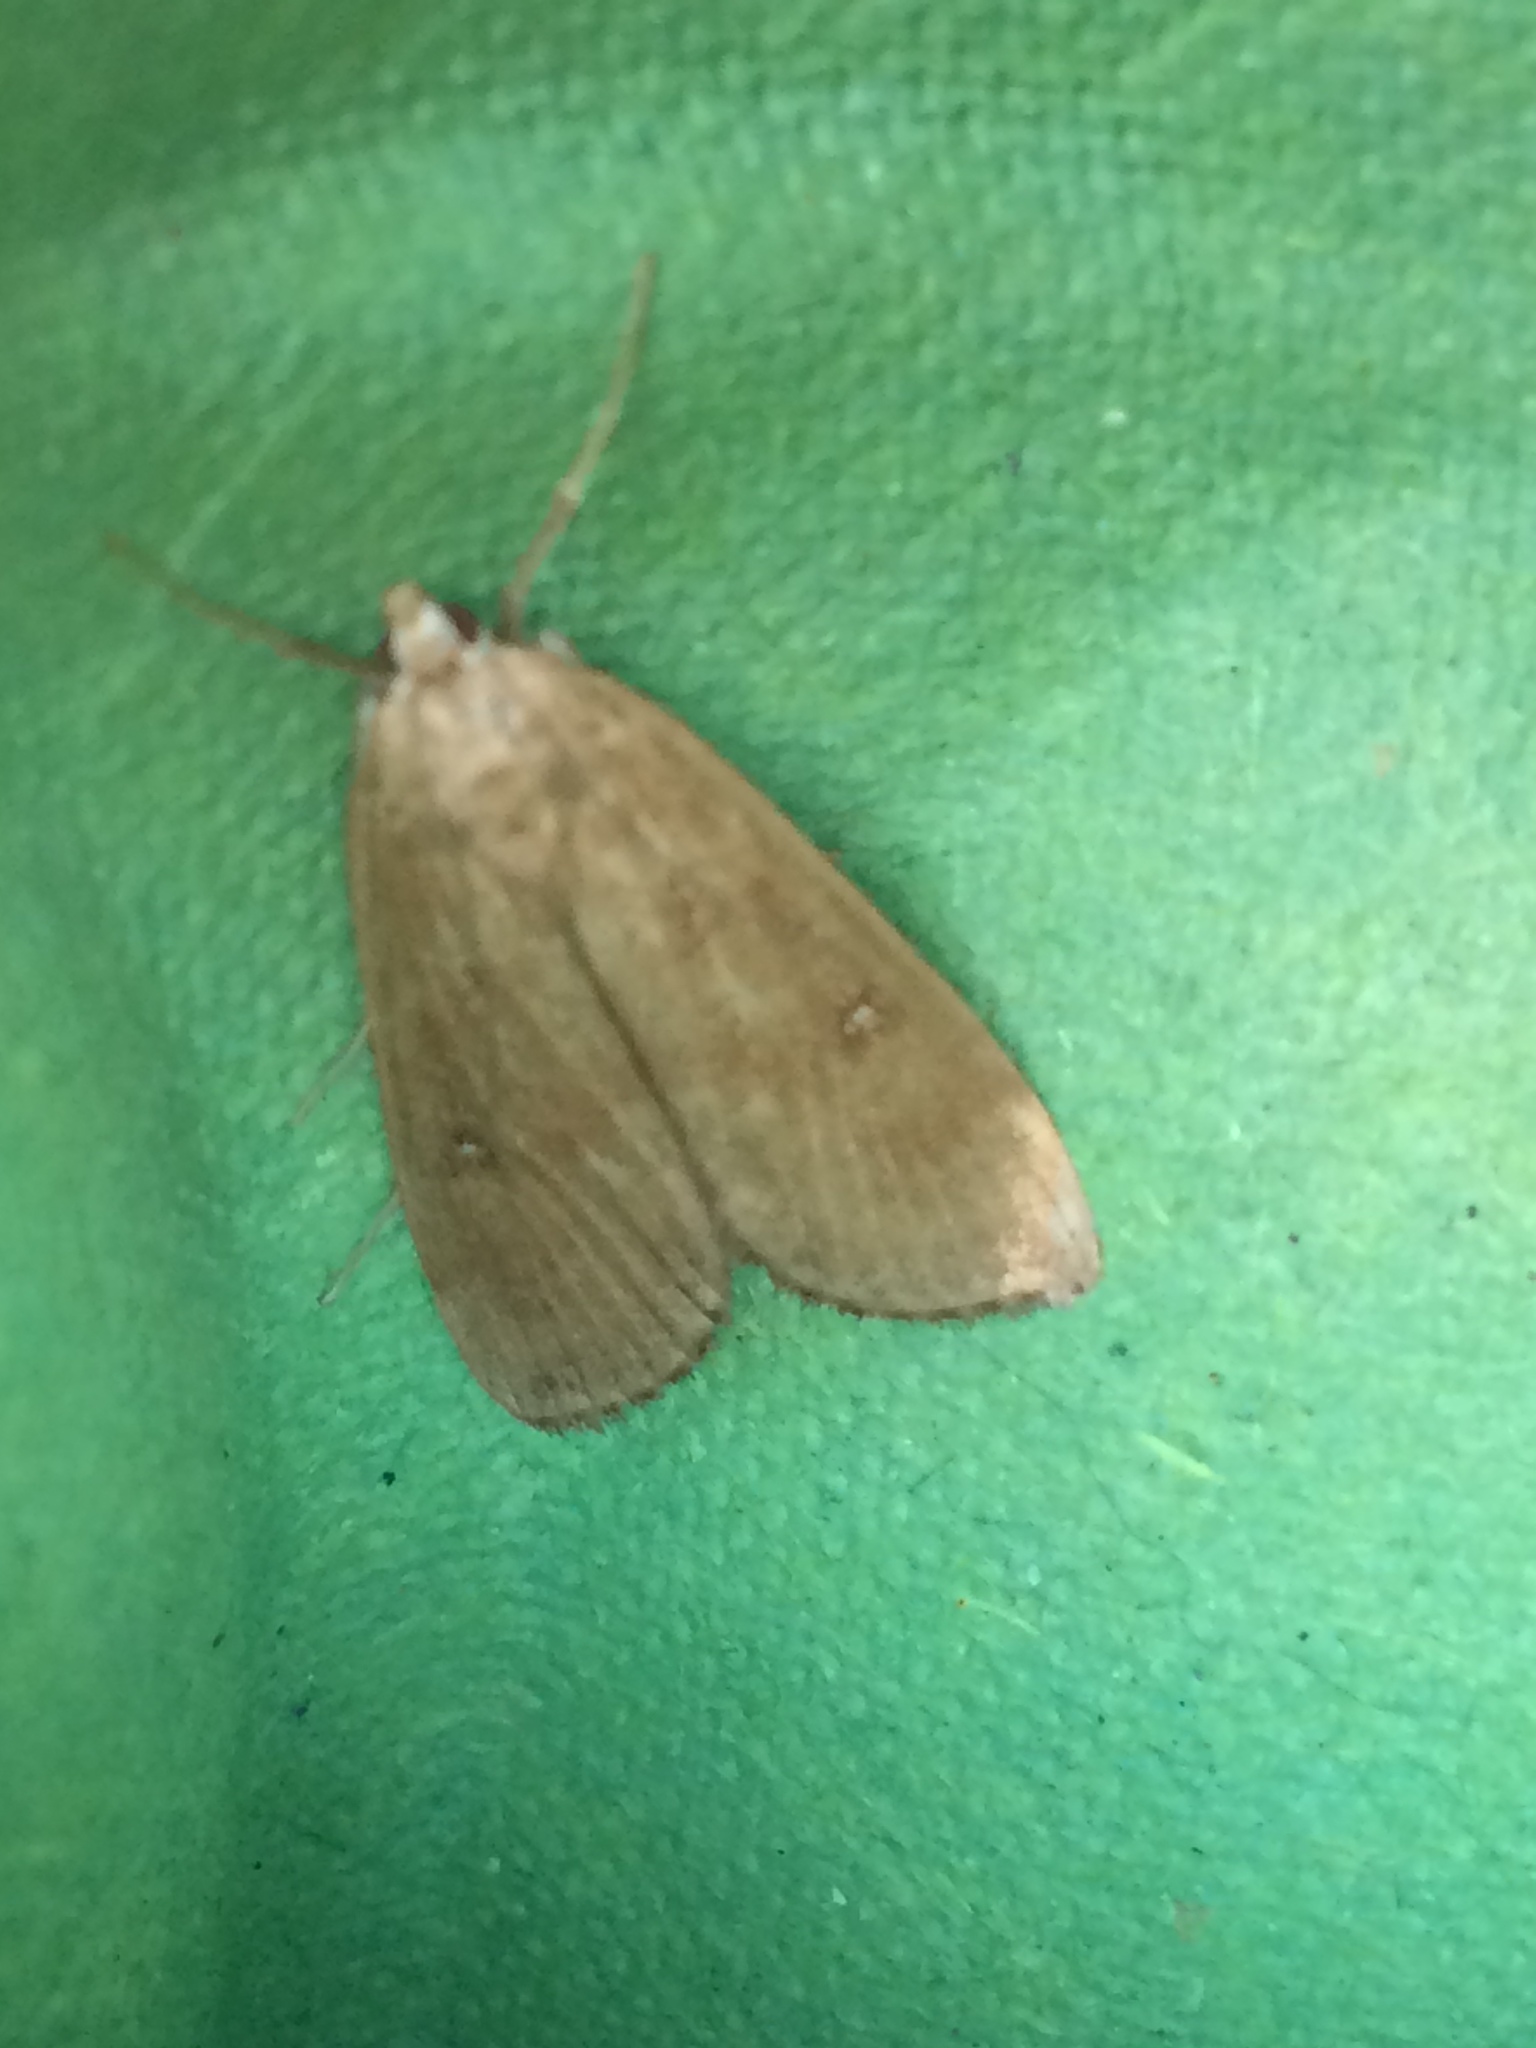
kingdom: Animalia
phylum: Arthropoda
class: Insecta
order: Lepidoptera
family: Crambidae
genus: Parapoynx
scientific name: Parapoynx stratiotata
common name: Ringed china-mark
